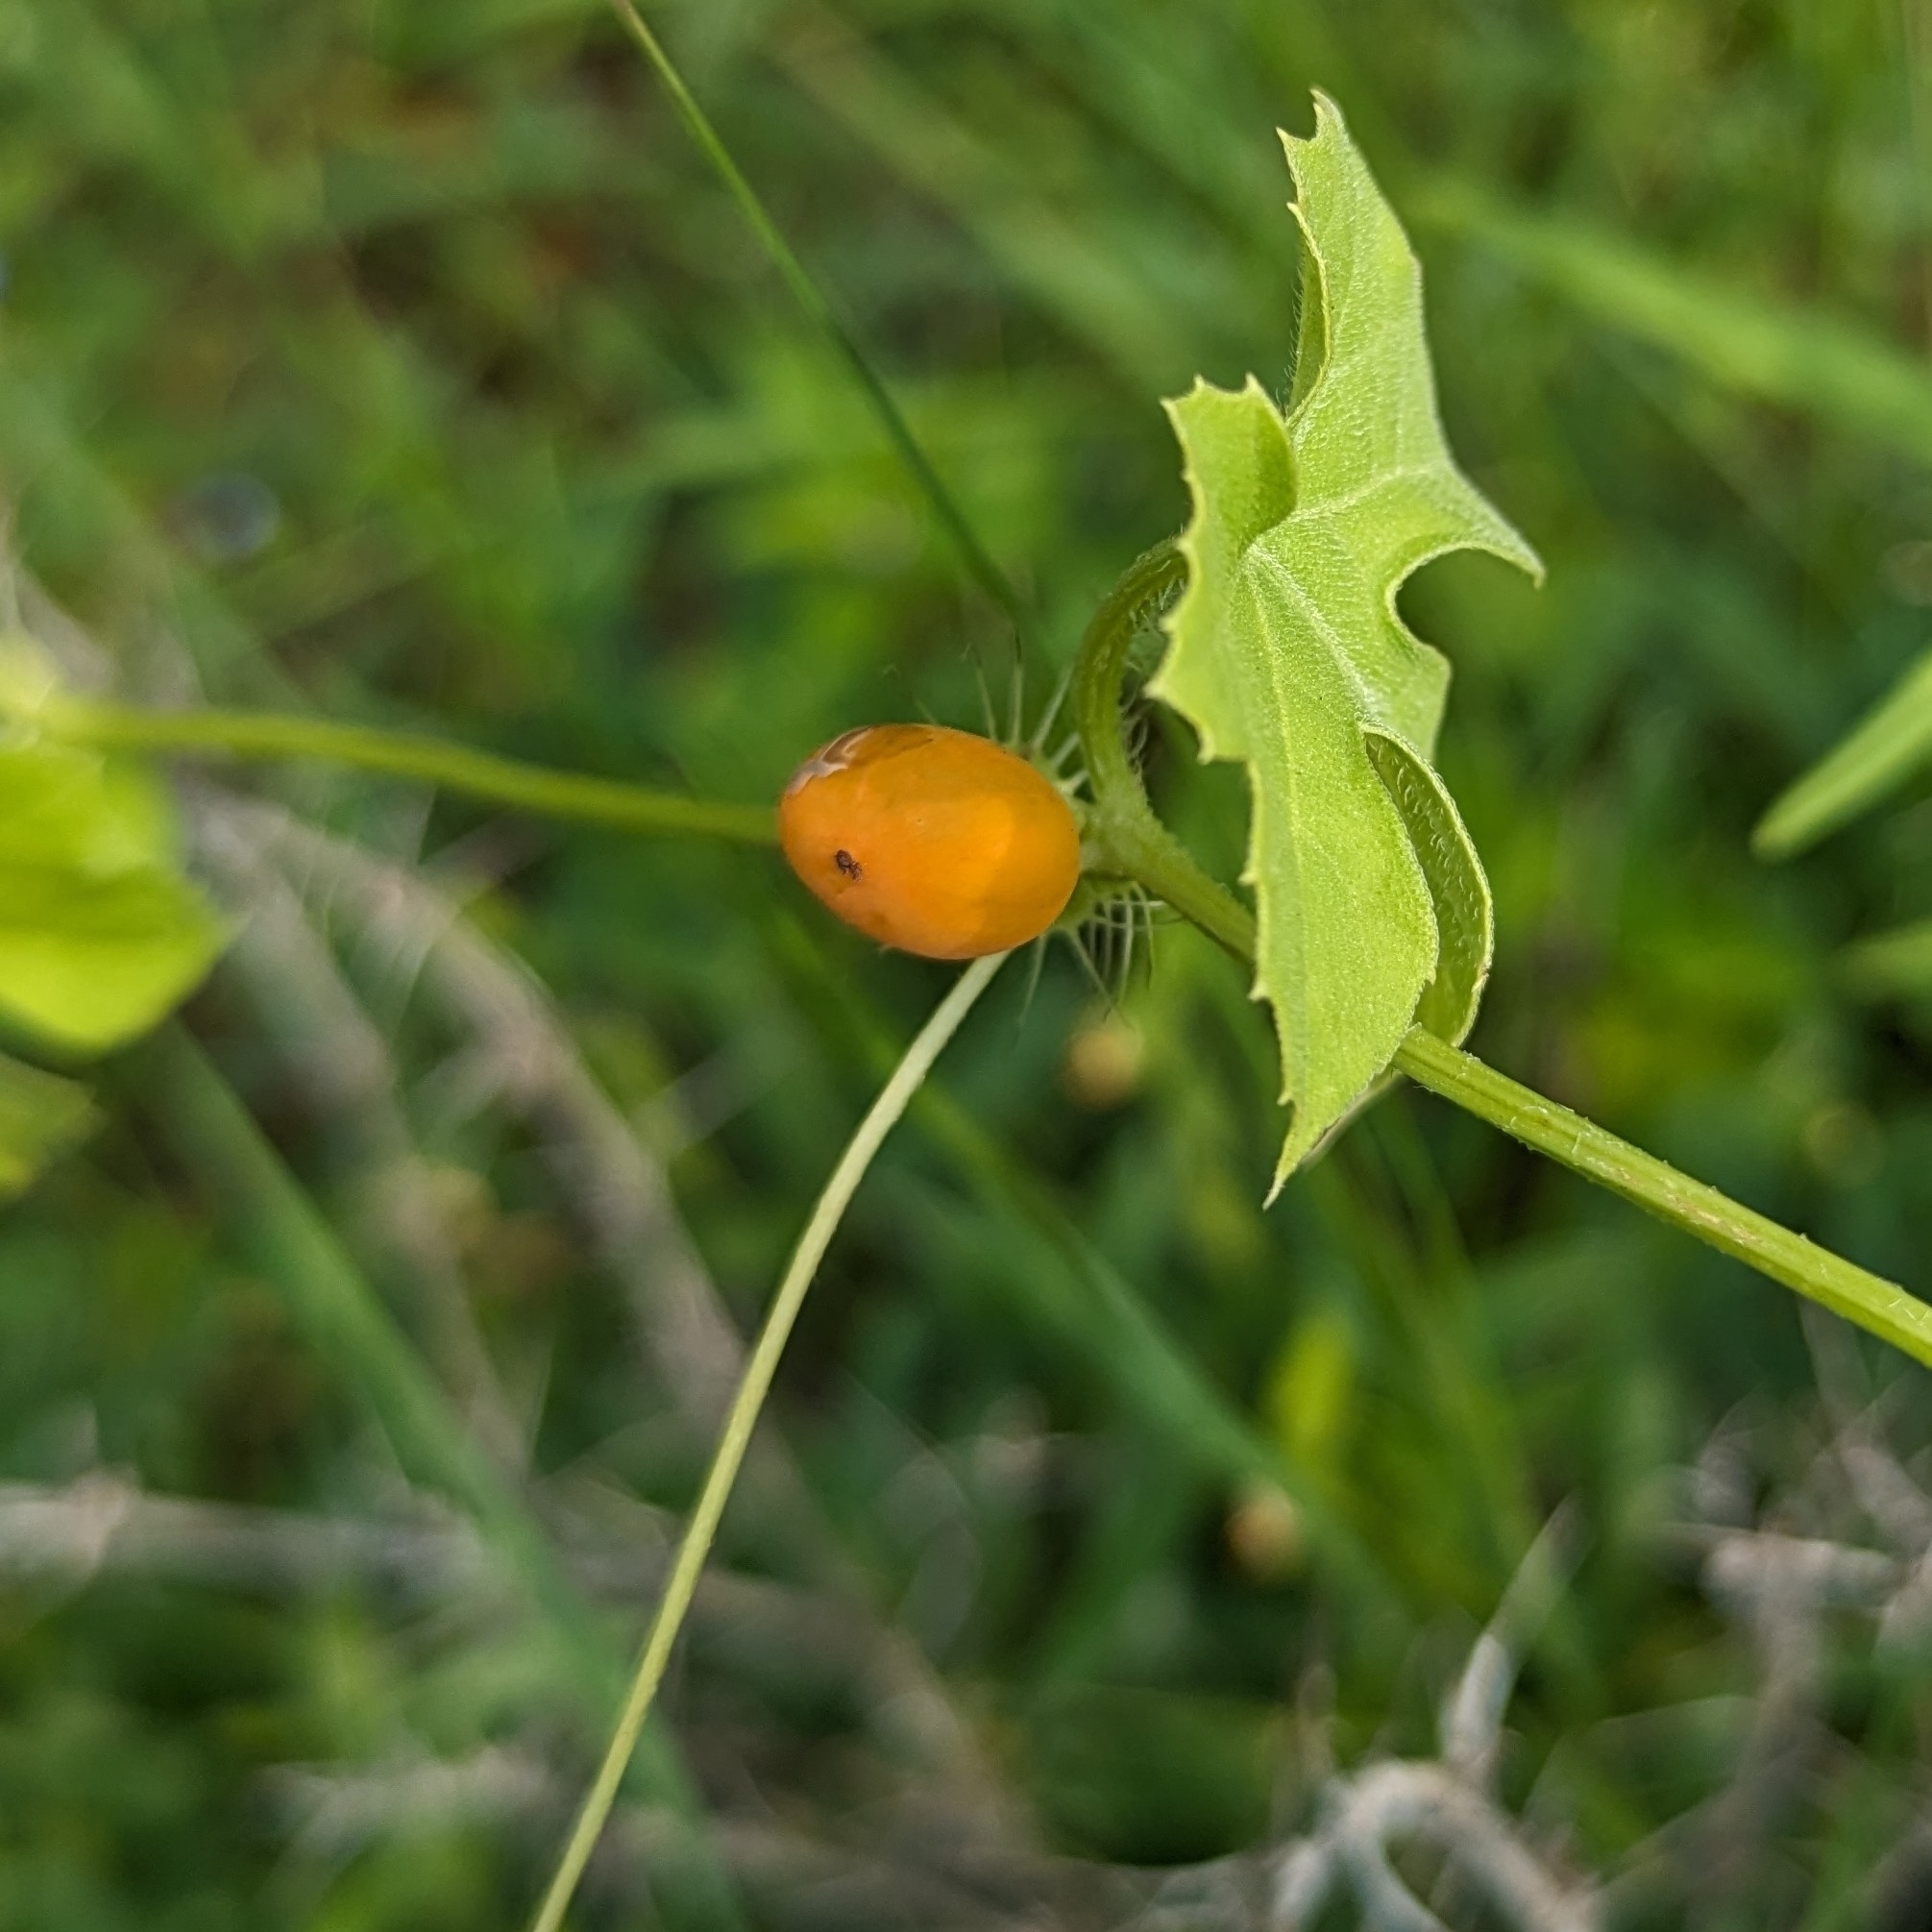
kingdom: Plantae
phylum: Tracheophyta
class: Magnoliopsida
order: Cucurbitales
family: Cucurbitaceae
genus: Blastania
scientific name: Blastania garcinii
